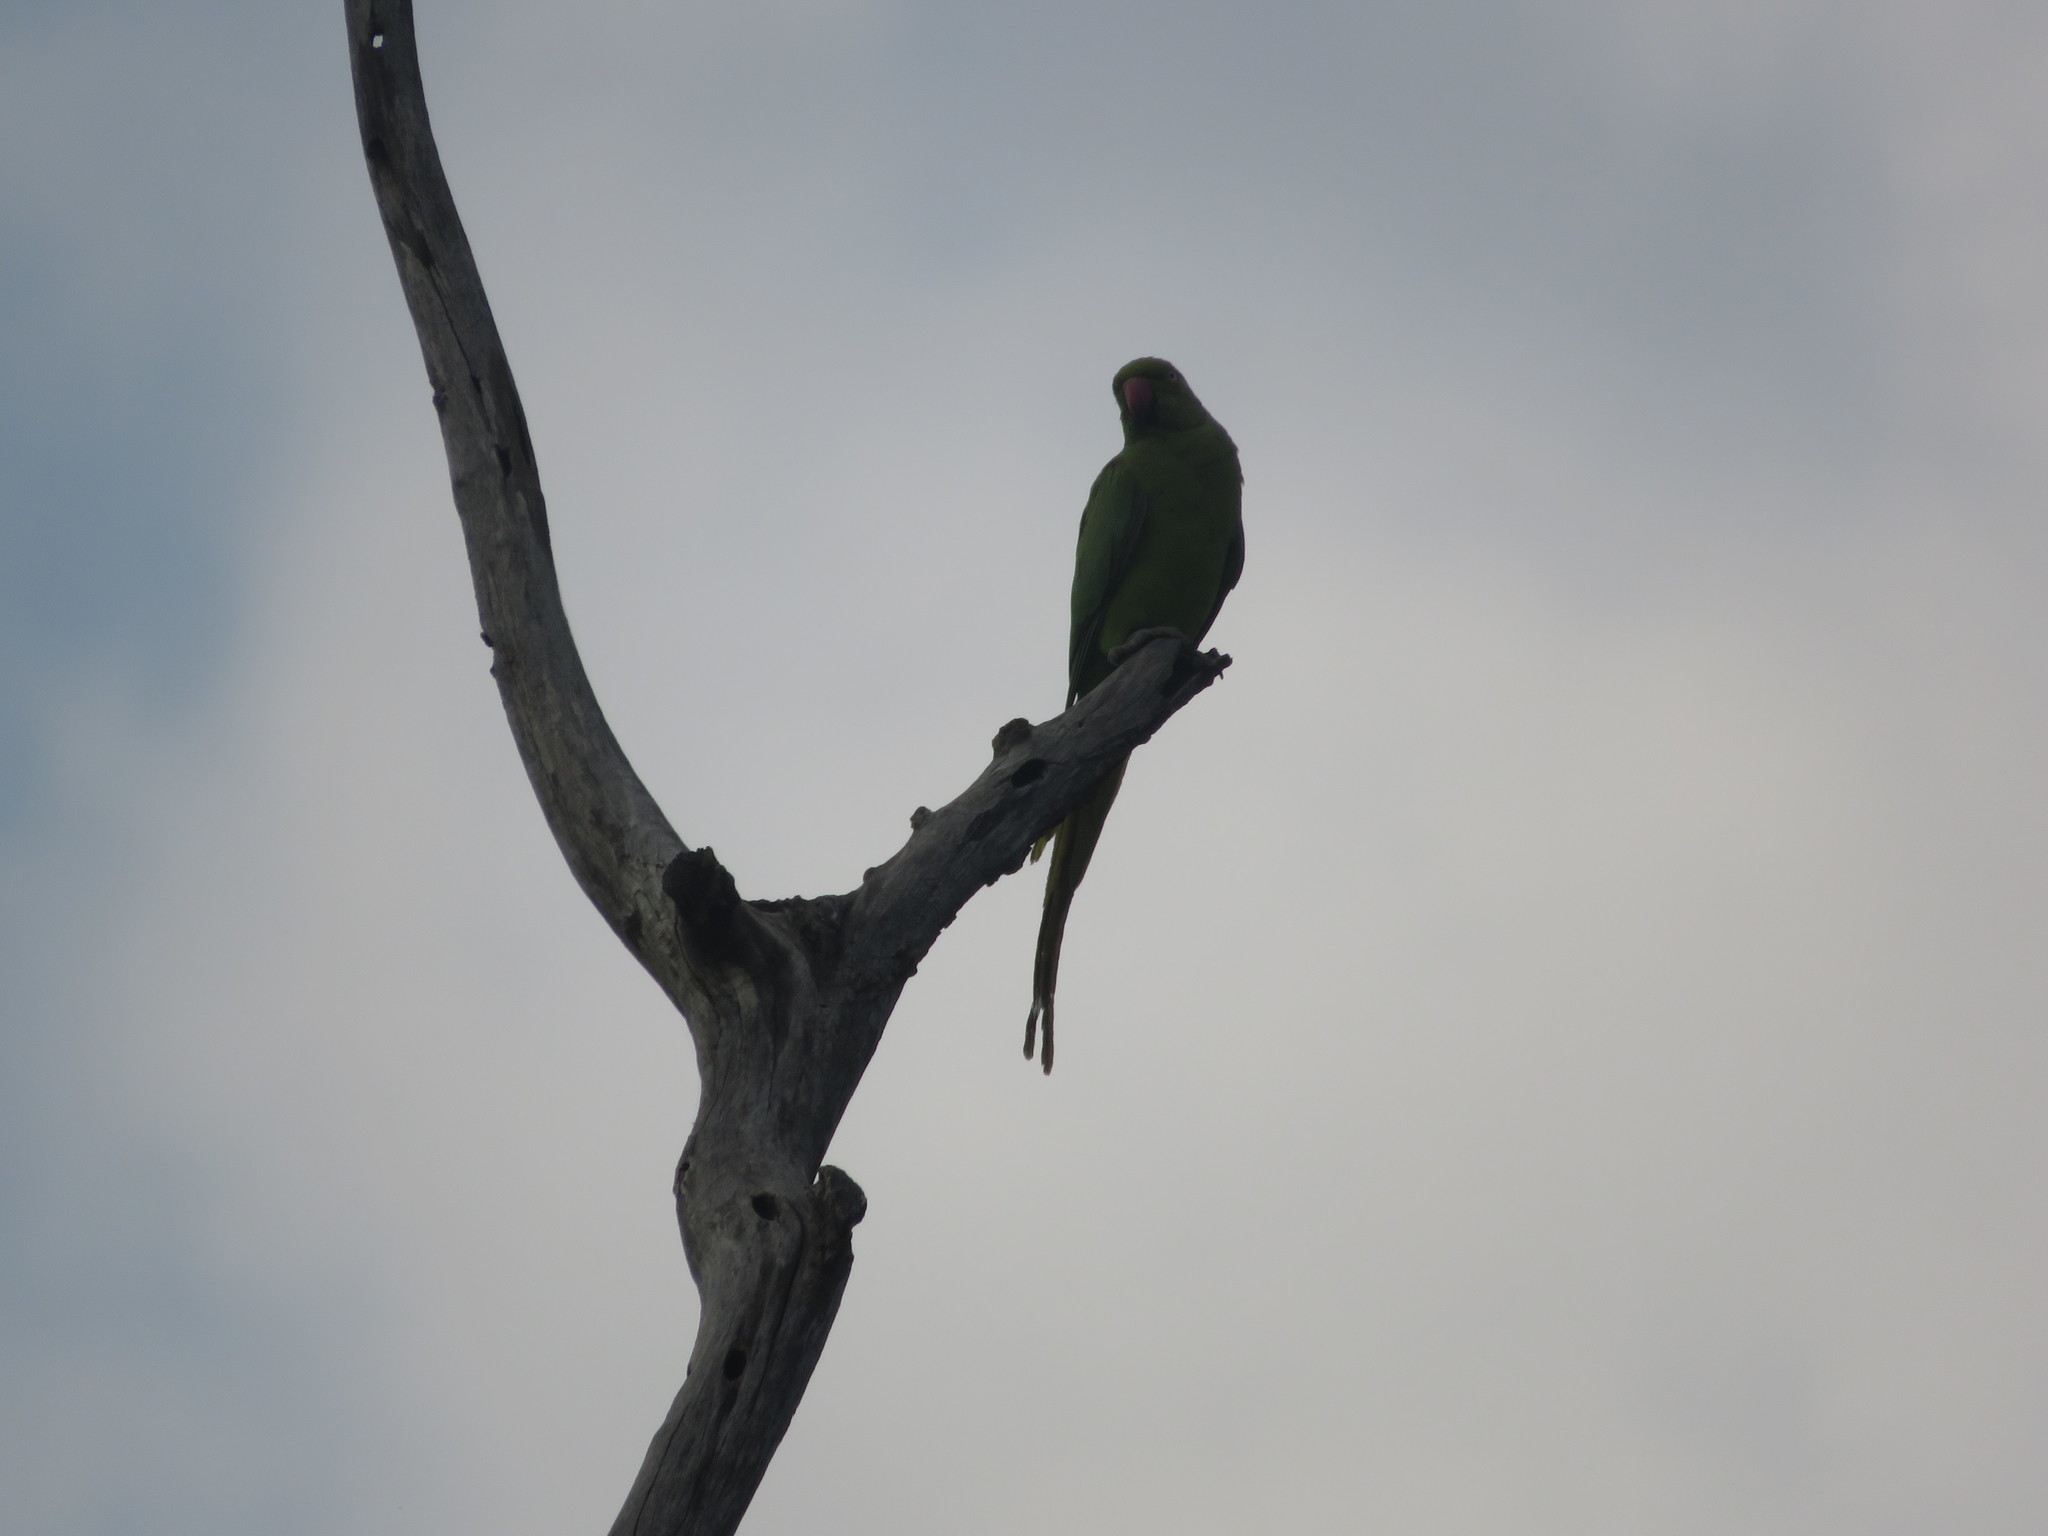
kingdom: Animalia
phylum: Chordata
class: Aves
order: Psittaciformes
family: Psittacidae
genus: Psittacula
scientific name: Psittacula krameri
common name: Rose-ringed parakeet
